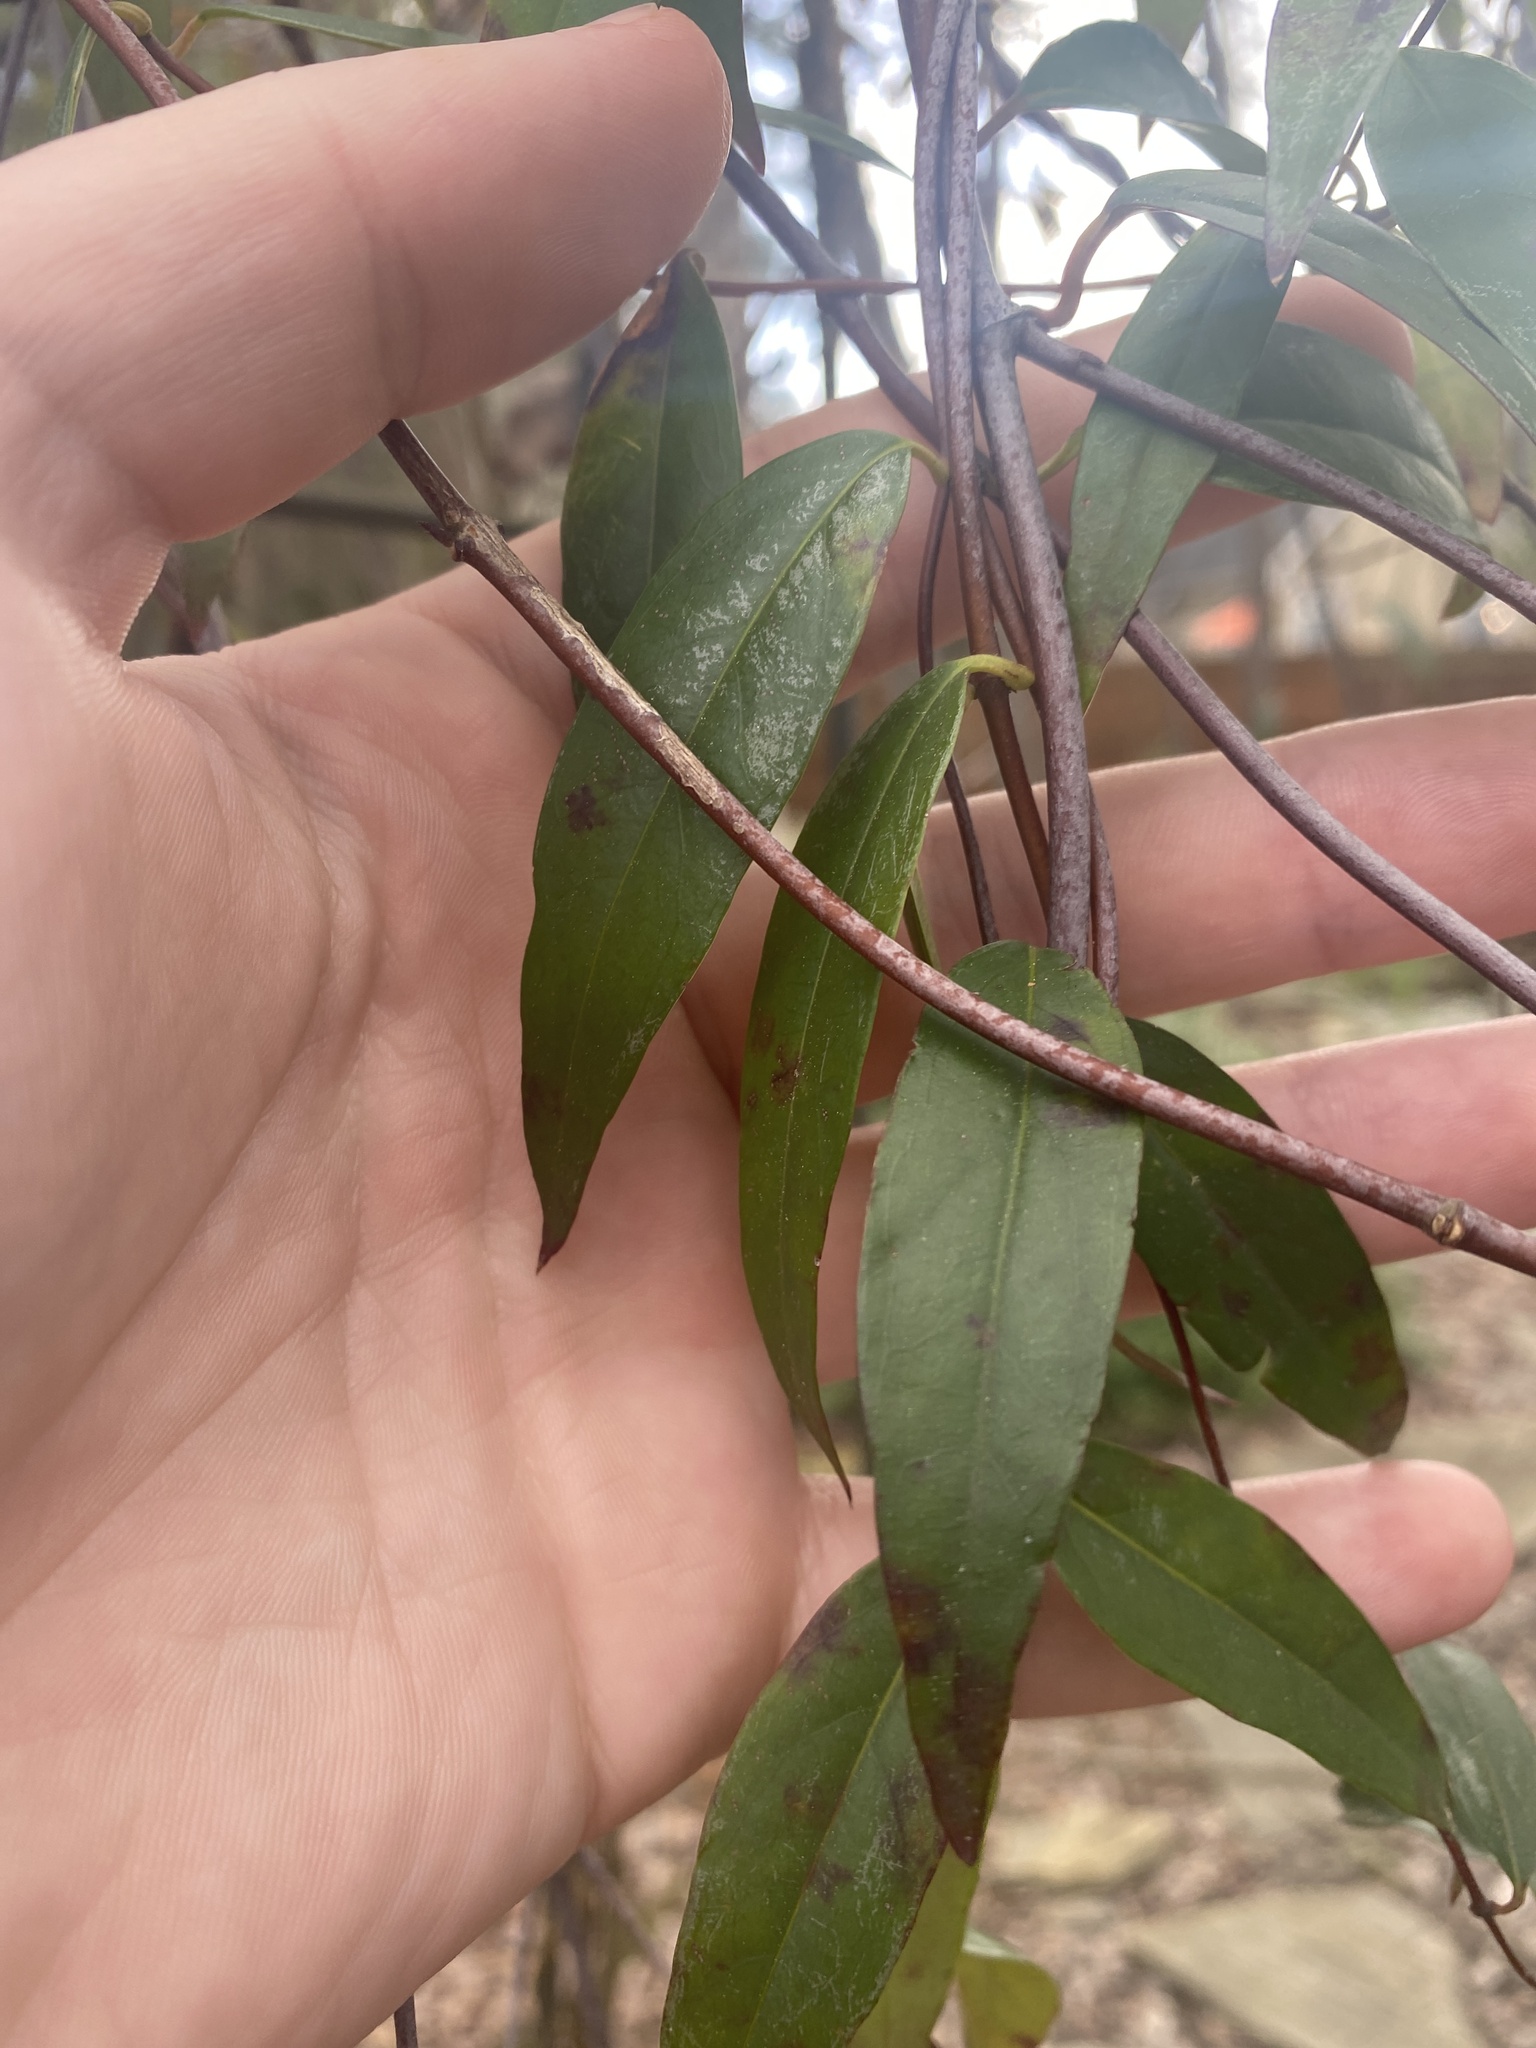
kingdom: Plantae
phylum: Tracheophyta
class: Magnoliopsida
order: Gentianales
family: Gelsemiaceae
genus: Gelsemium
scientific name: Gelsemium sempervirens
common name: Carolina-jasmine
